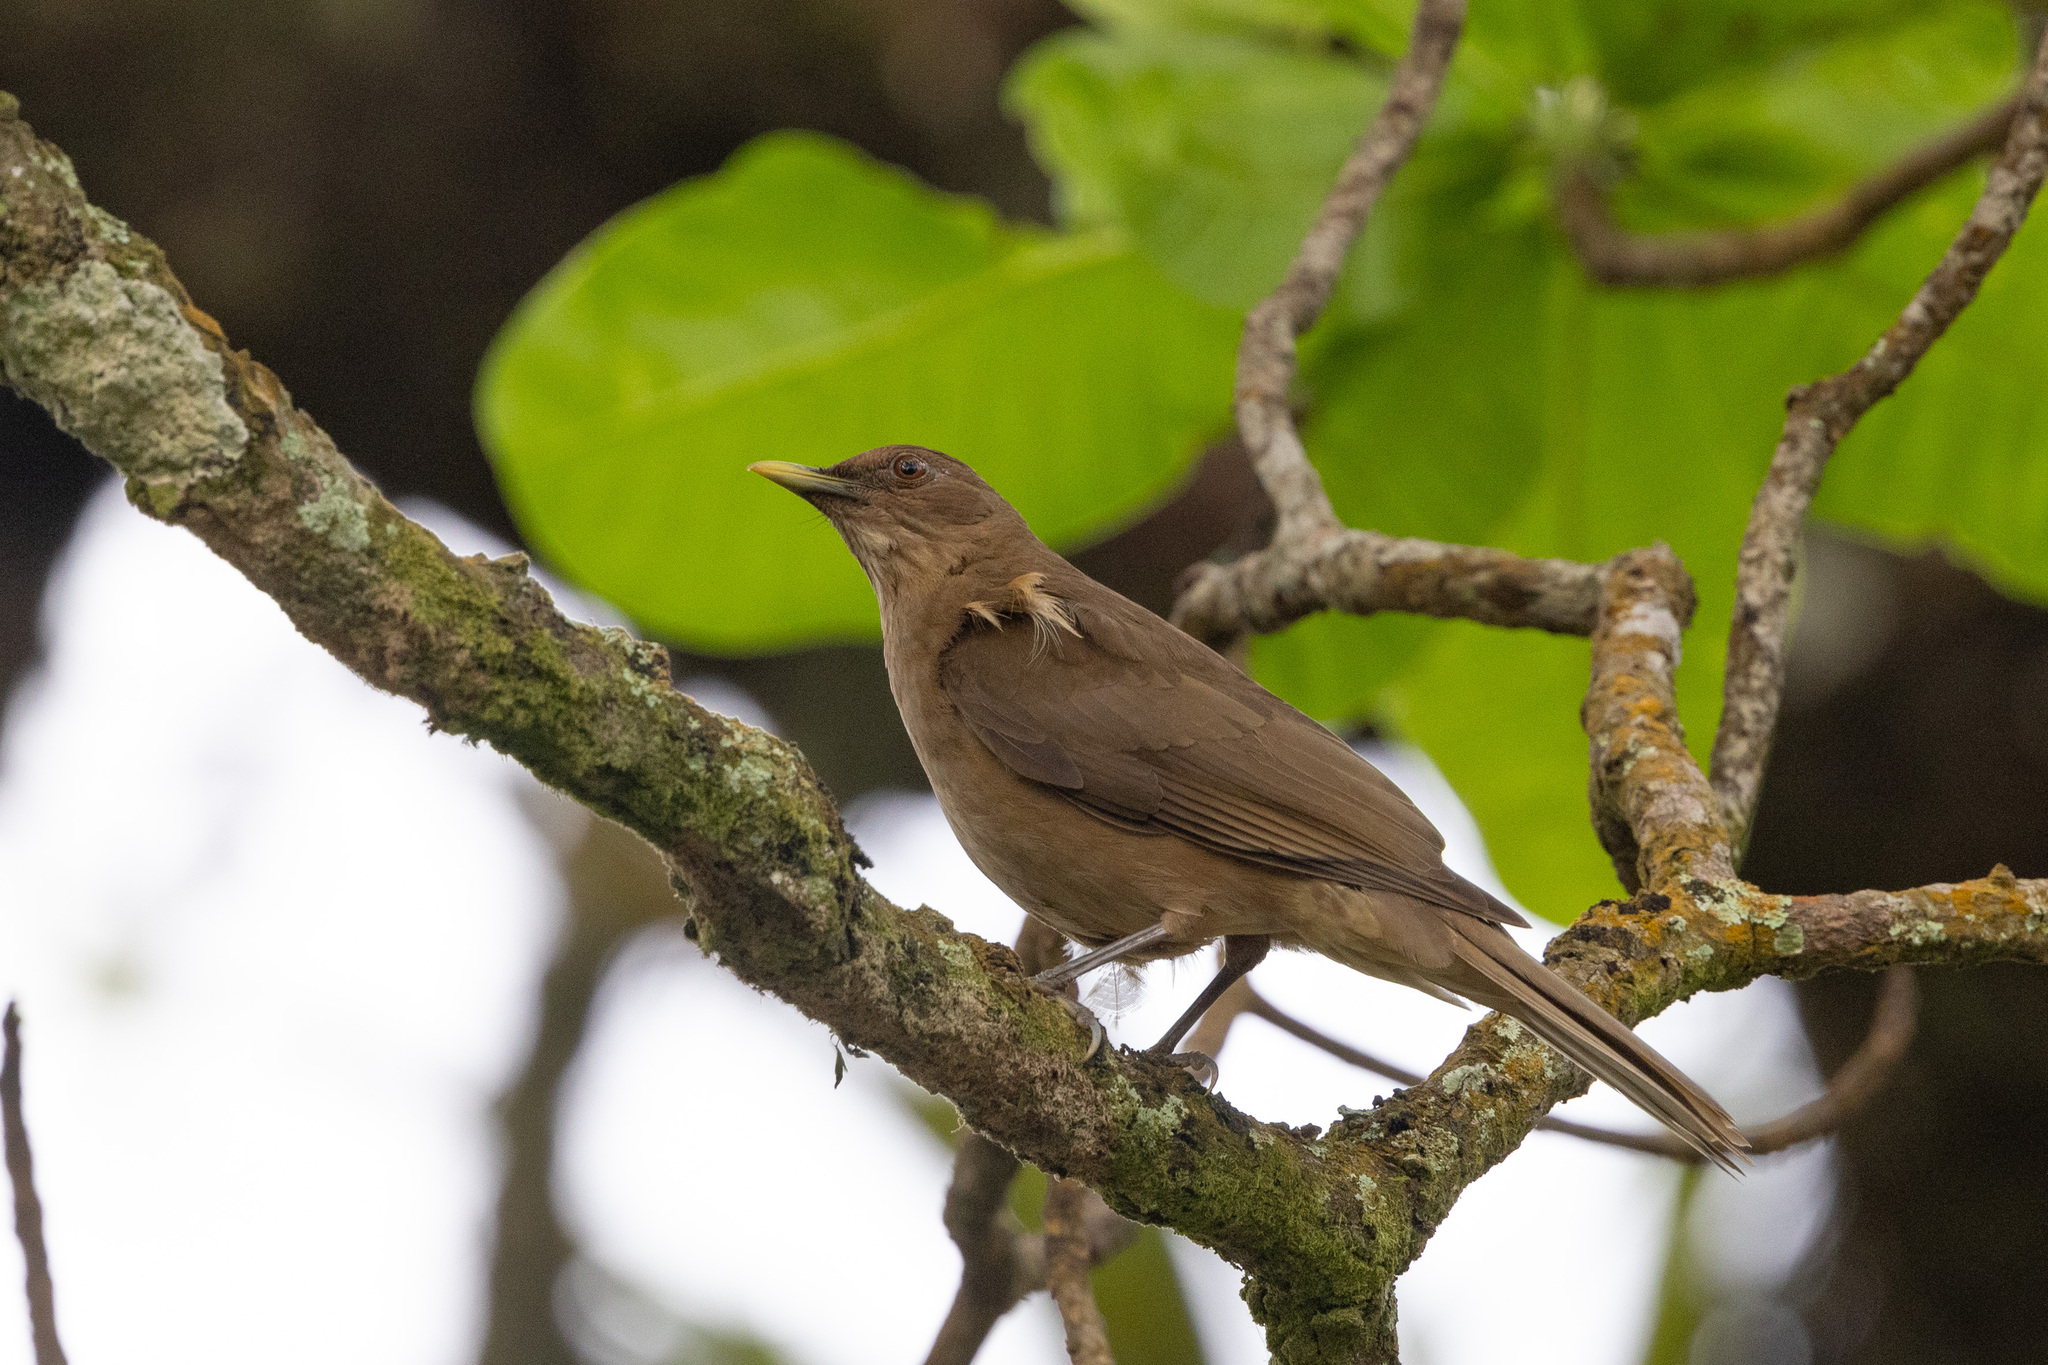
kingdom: Animalia
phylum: Chordata
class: Aves
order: Passeriformes
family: Turdidae
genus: Turdus
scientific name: Turdus grayi
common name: Clay-colored thrush
